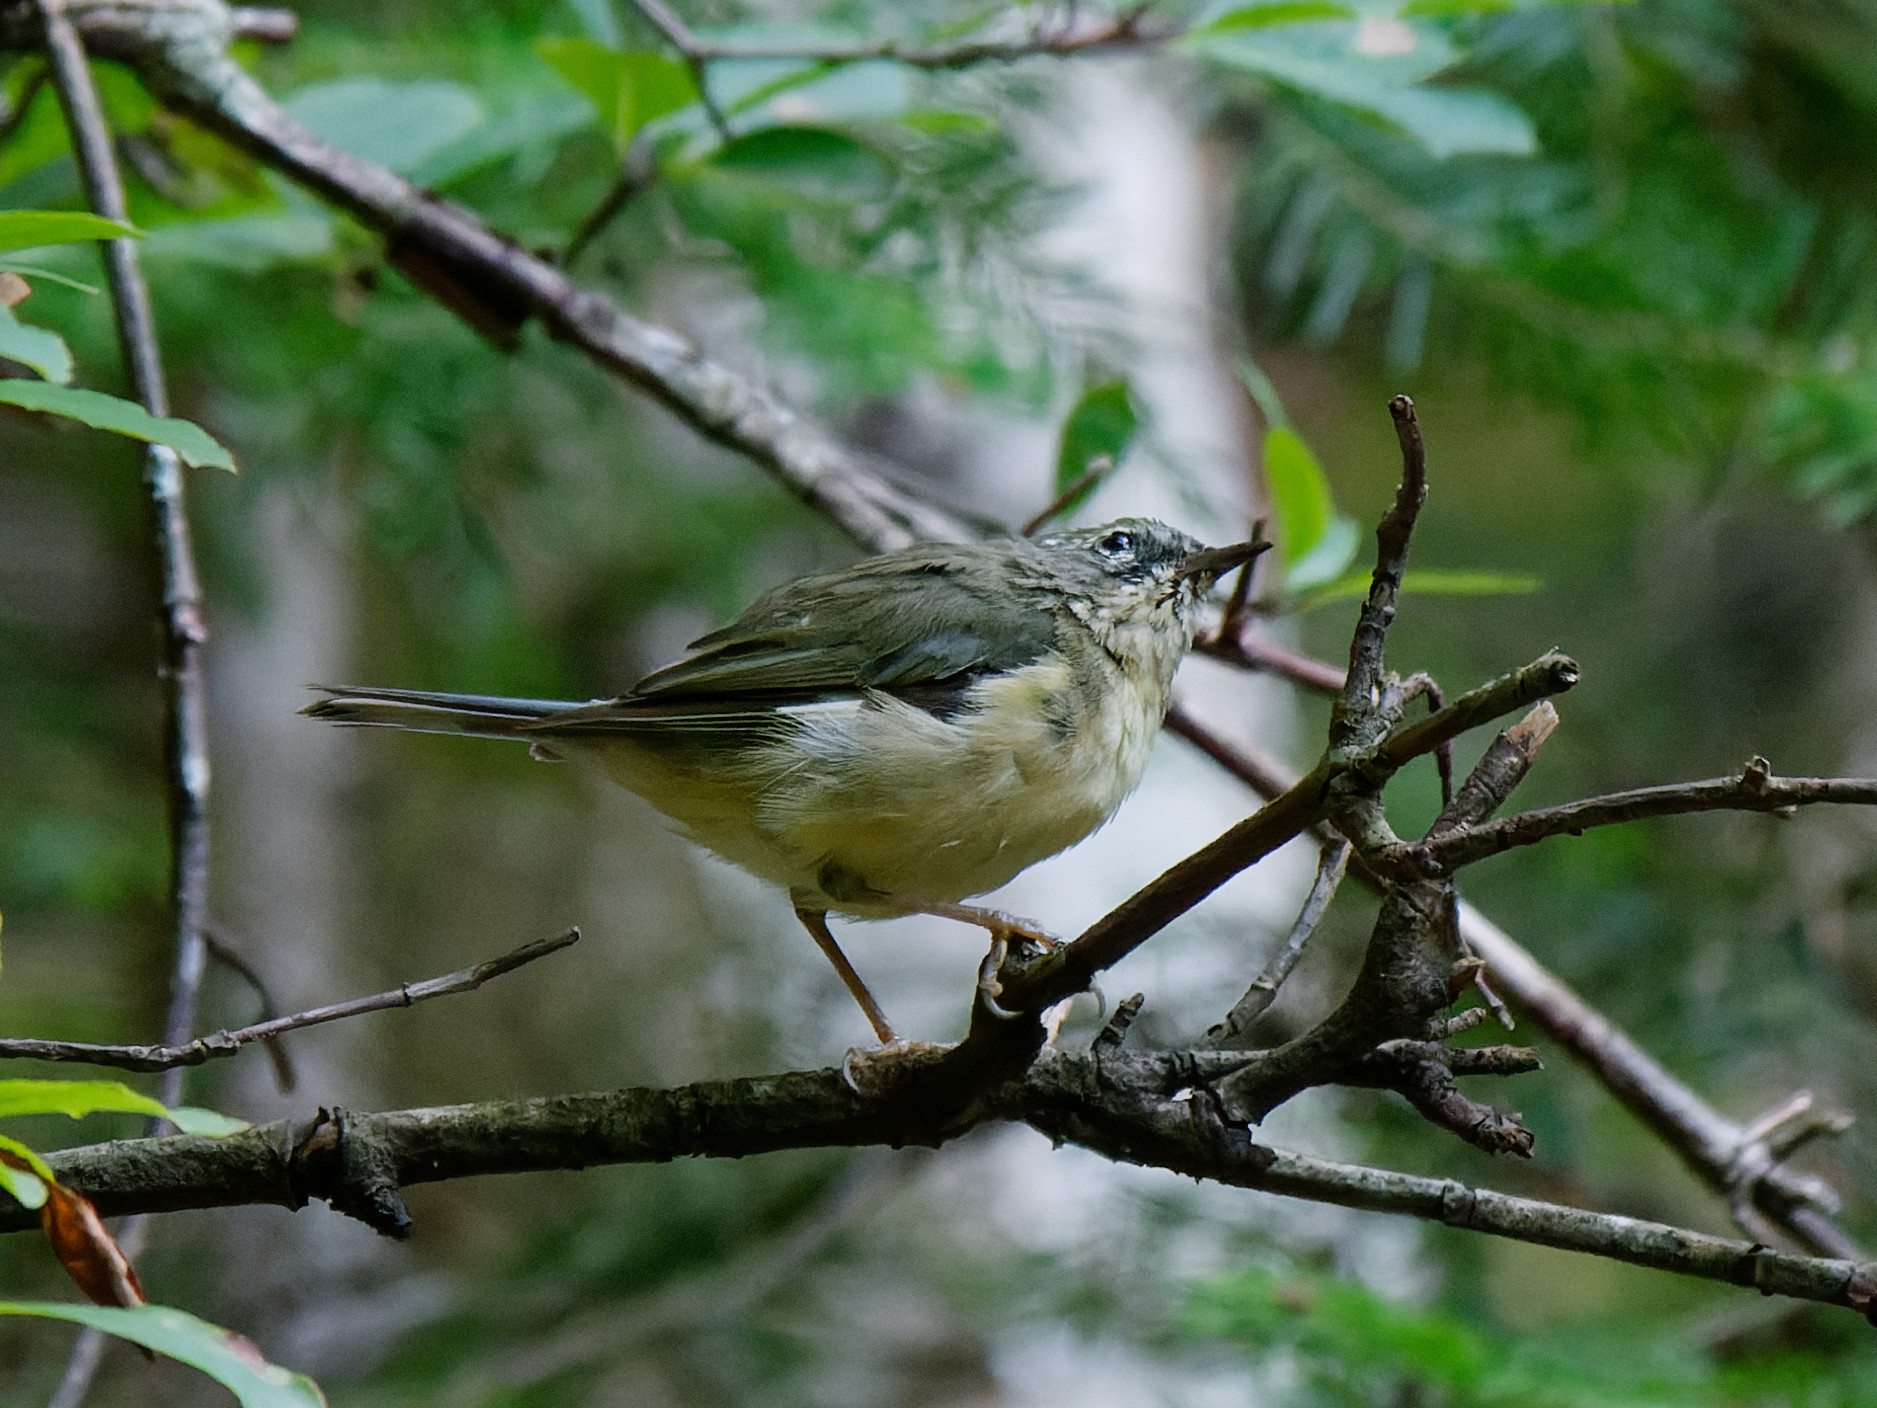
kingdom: Animalia
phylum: Chordata
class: Aves
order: Passeriformes
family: Parulidae
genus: Setophaga
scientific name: Setophaga caerulescens
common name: Black-throated blue warbler
